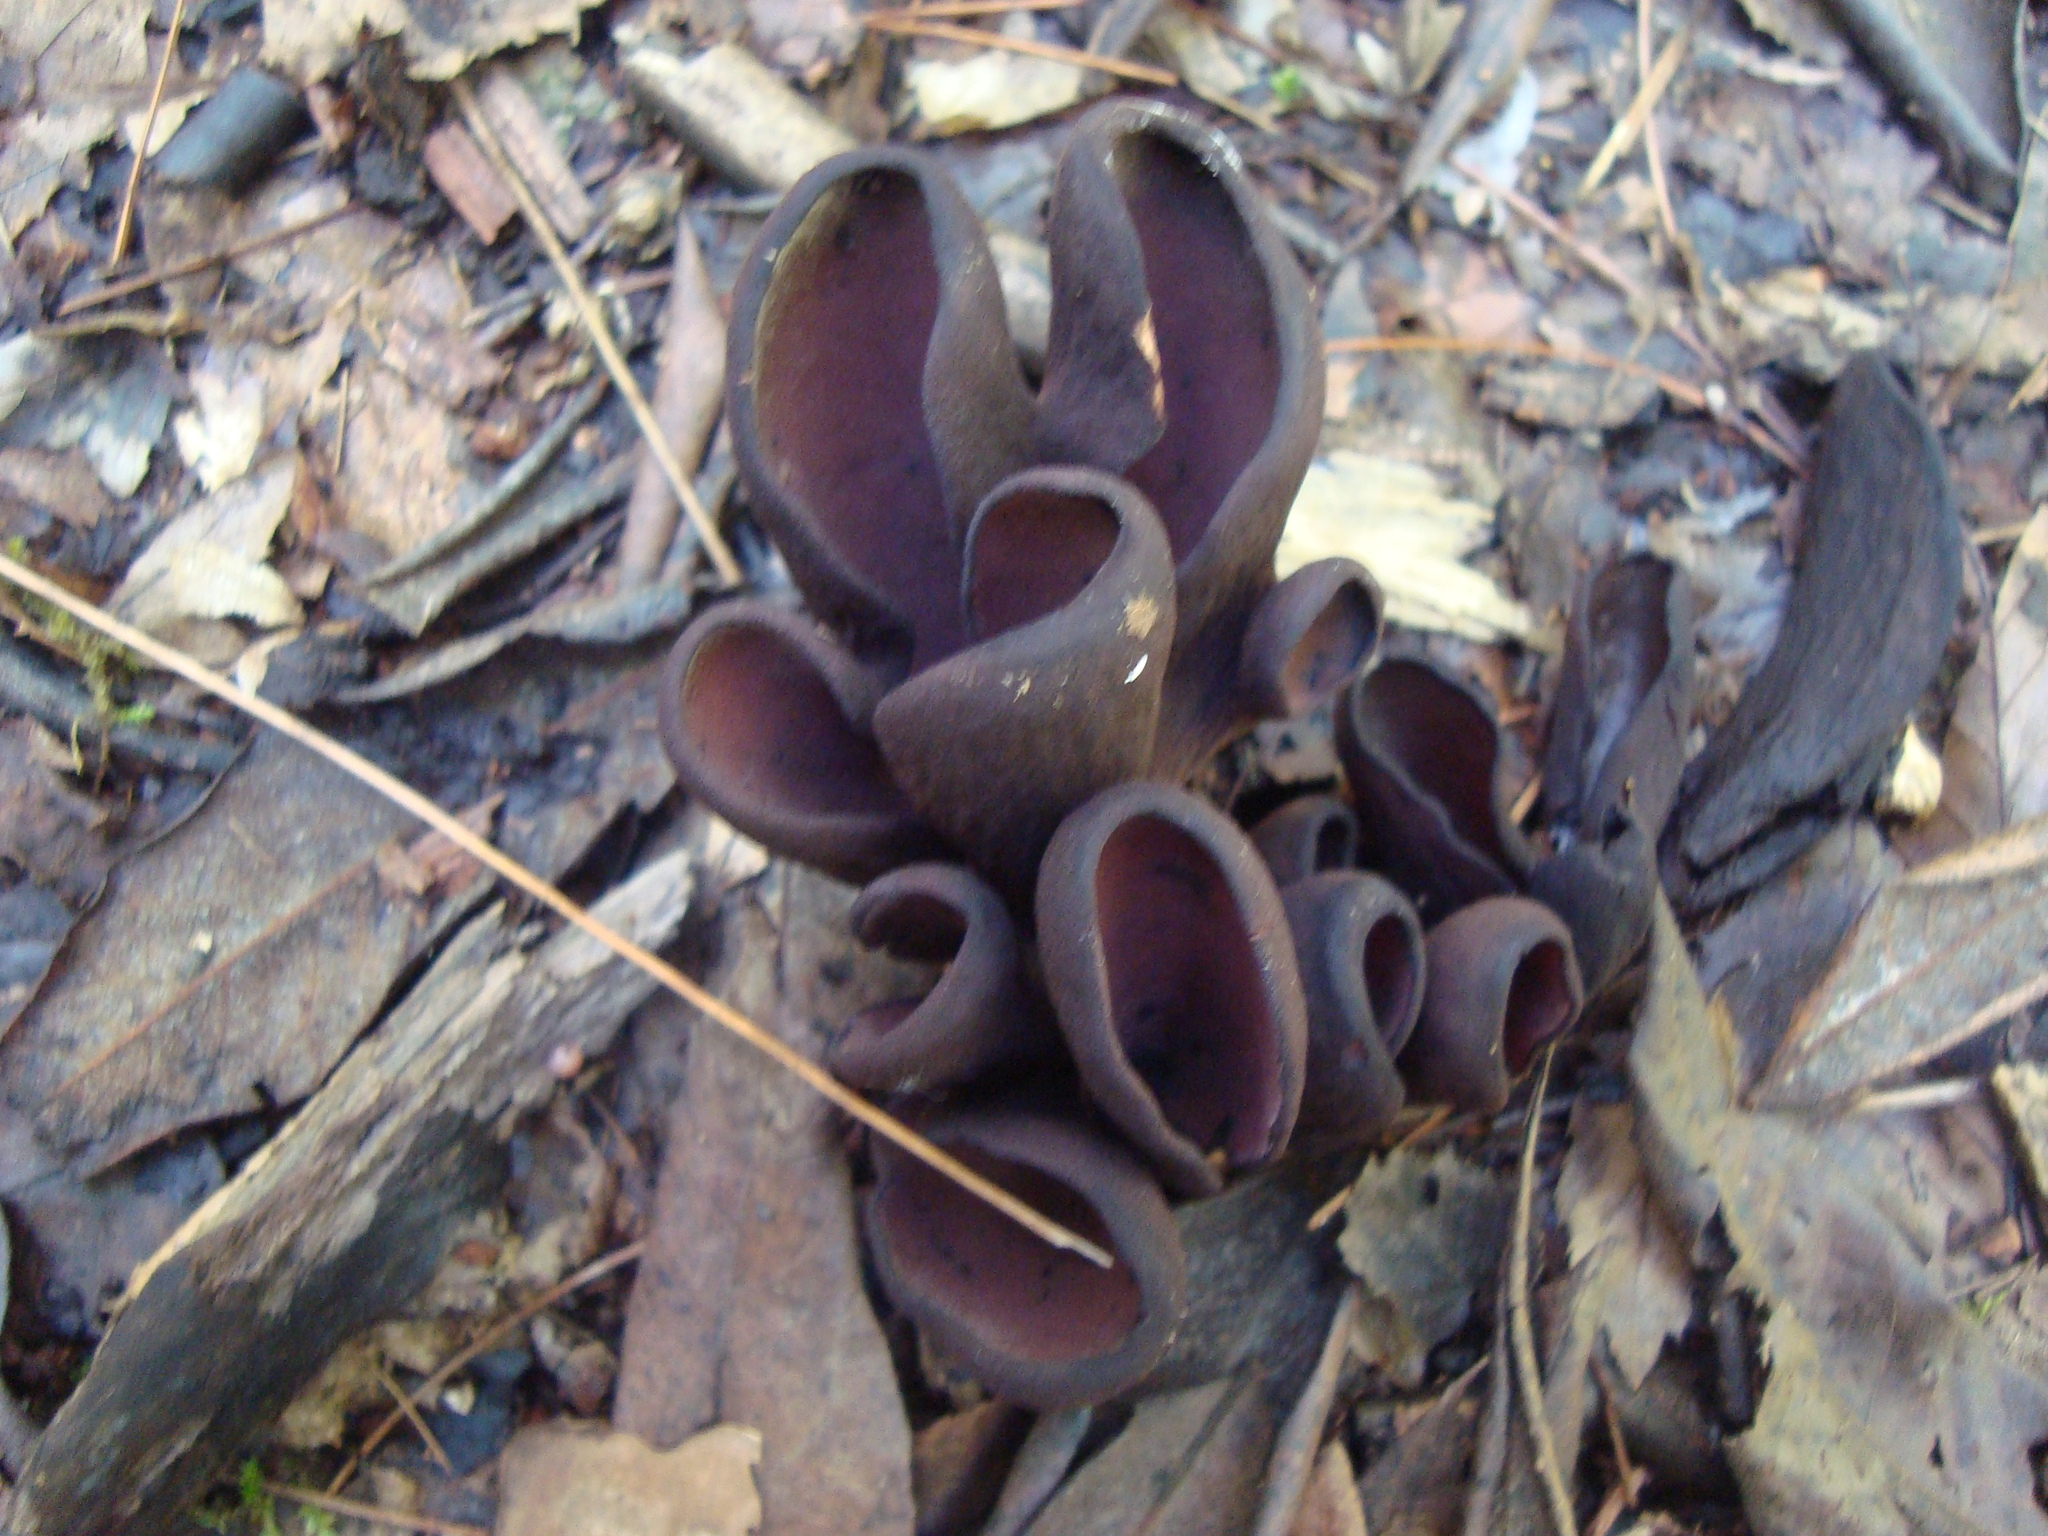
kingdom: Fungi
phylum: Ascomycota
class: Pezizomycetes
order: Pezizales
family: Wynneaceae
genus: Wynnea
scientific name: Wynnea americana
